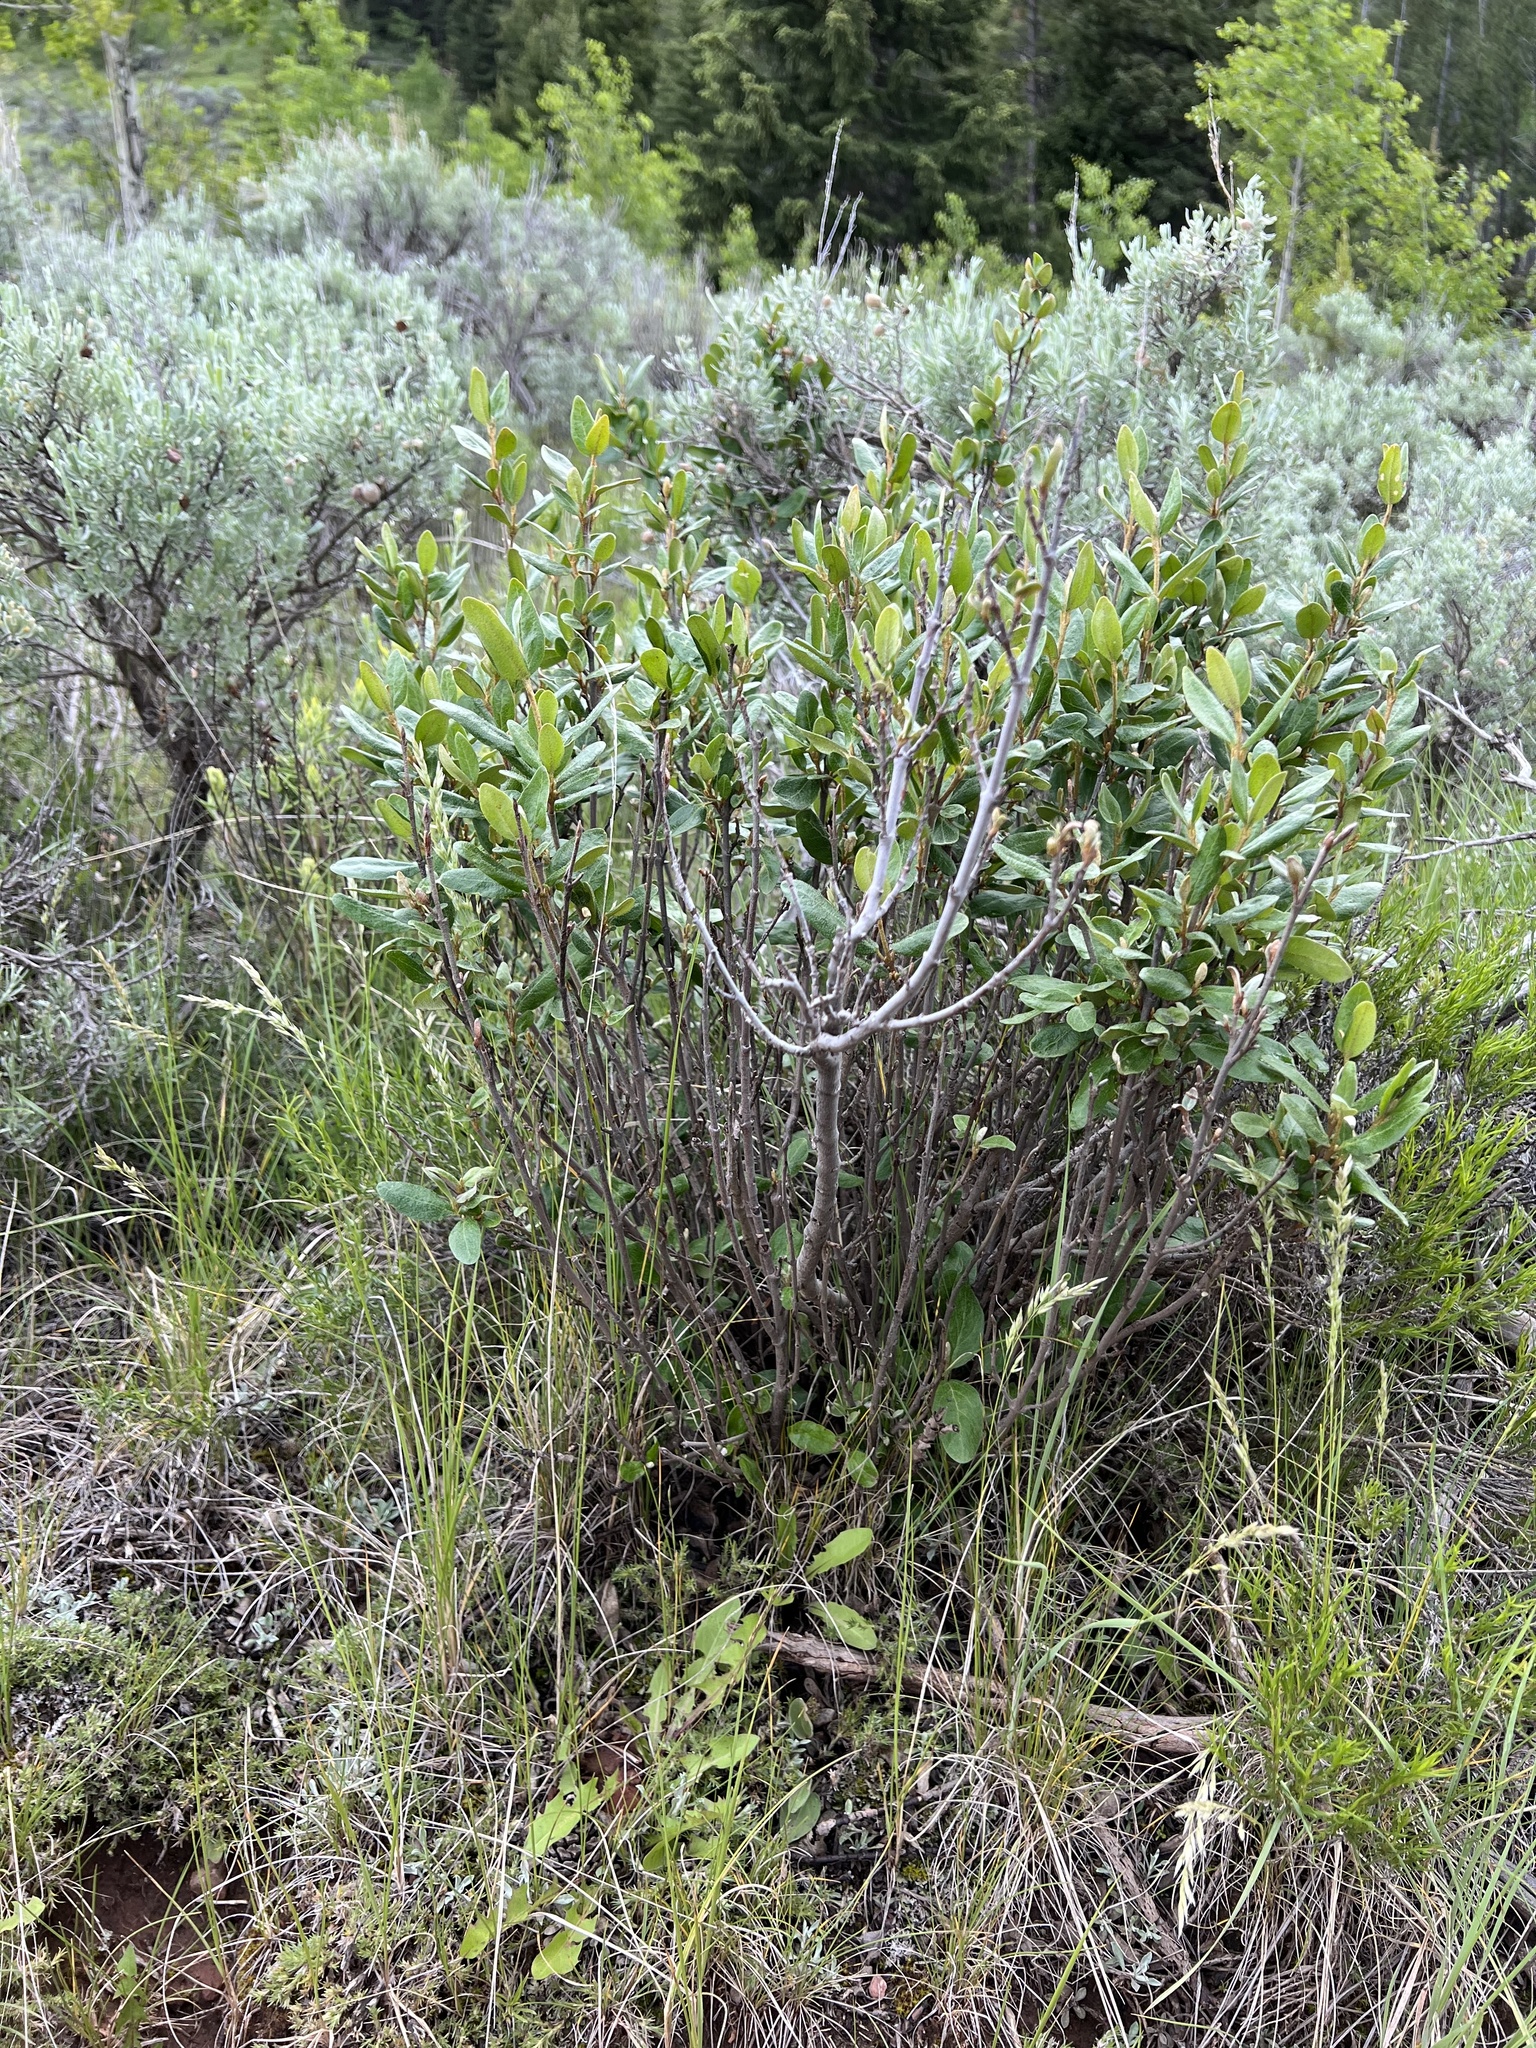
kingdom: Plantae
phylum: Tracheophyta
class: Magnoliopsida
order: Rosales
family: Elaeagnaceae
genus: Shepherdia
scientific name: Shepherdia canadensis
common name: Soapberry
